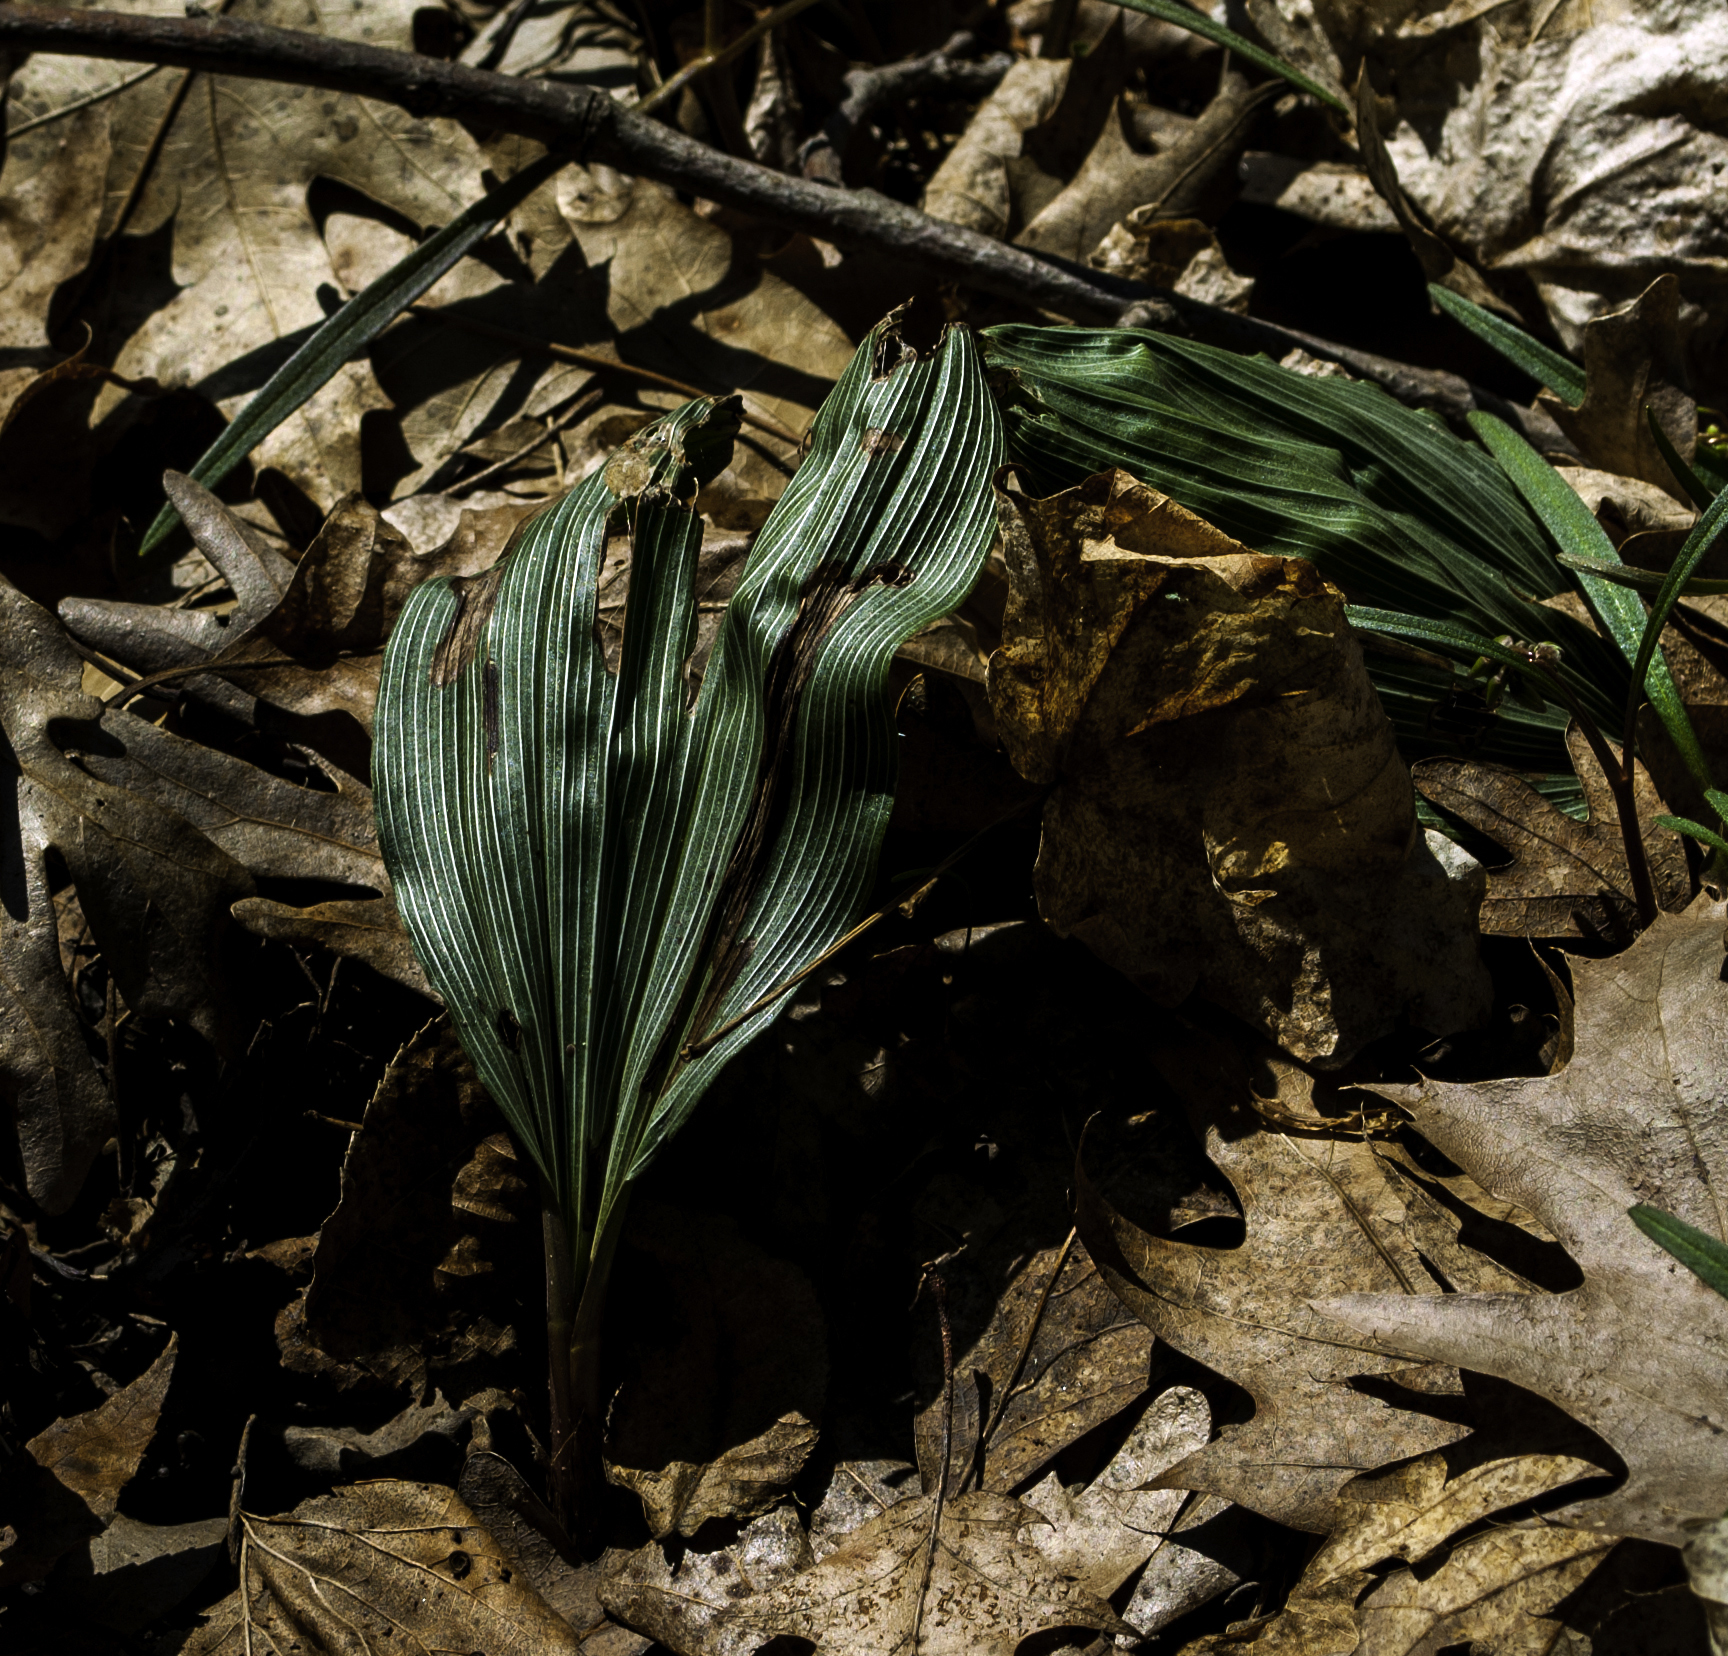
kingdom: Plantae
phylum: Tracheophyta
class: Liliopsida
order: Asparagales
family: Orchidaceae
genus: Aplectrum
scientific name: Aplectrum hyemale
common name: Adam-and-eve
